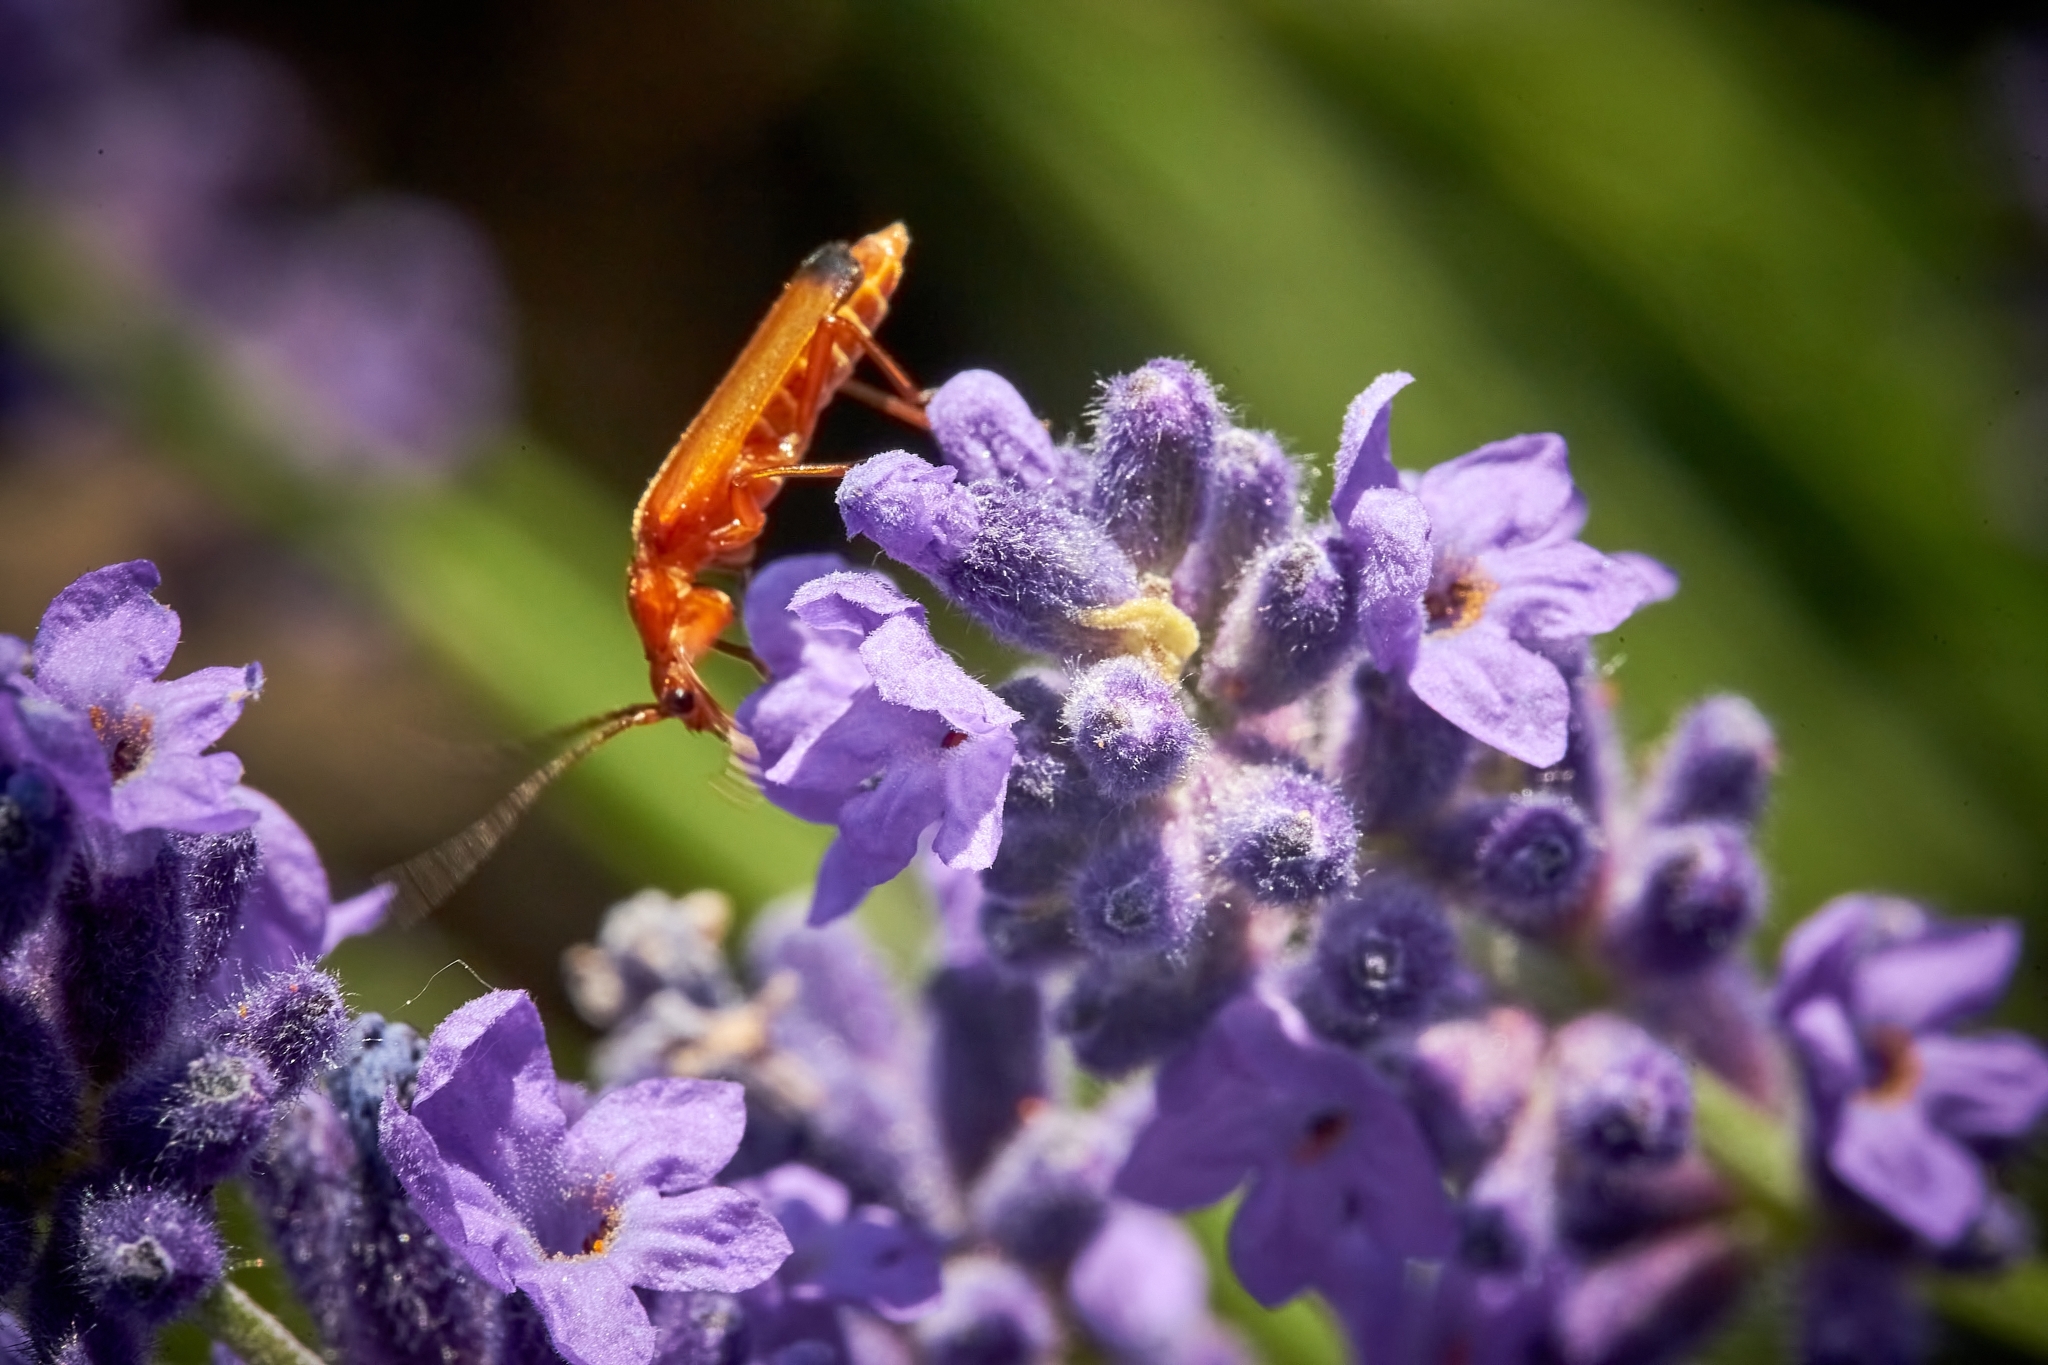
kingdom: Animalia
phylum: Arthropoda
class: Insecta
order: Coleoptera
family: Cantharidae
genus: Rhagonycha
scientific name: Rhagonycha fulva
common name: Common red soldier beetle
